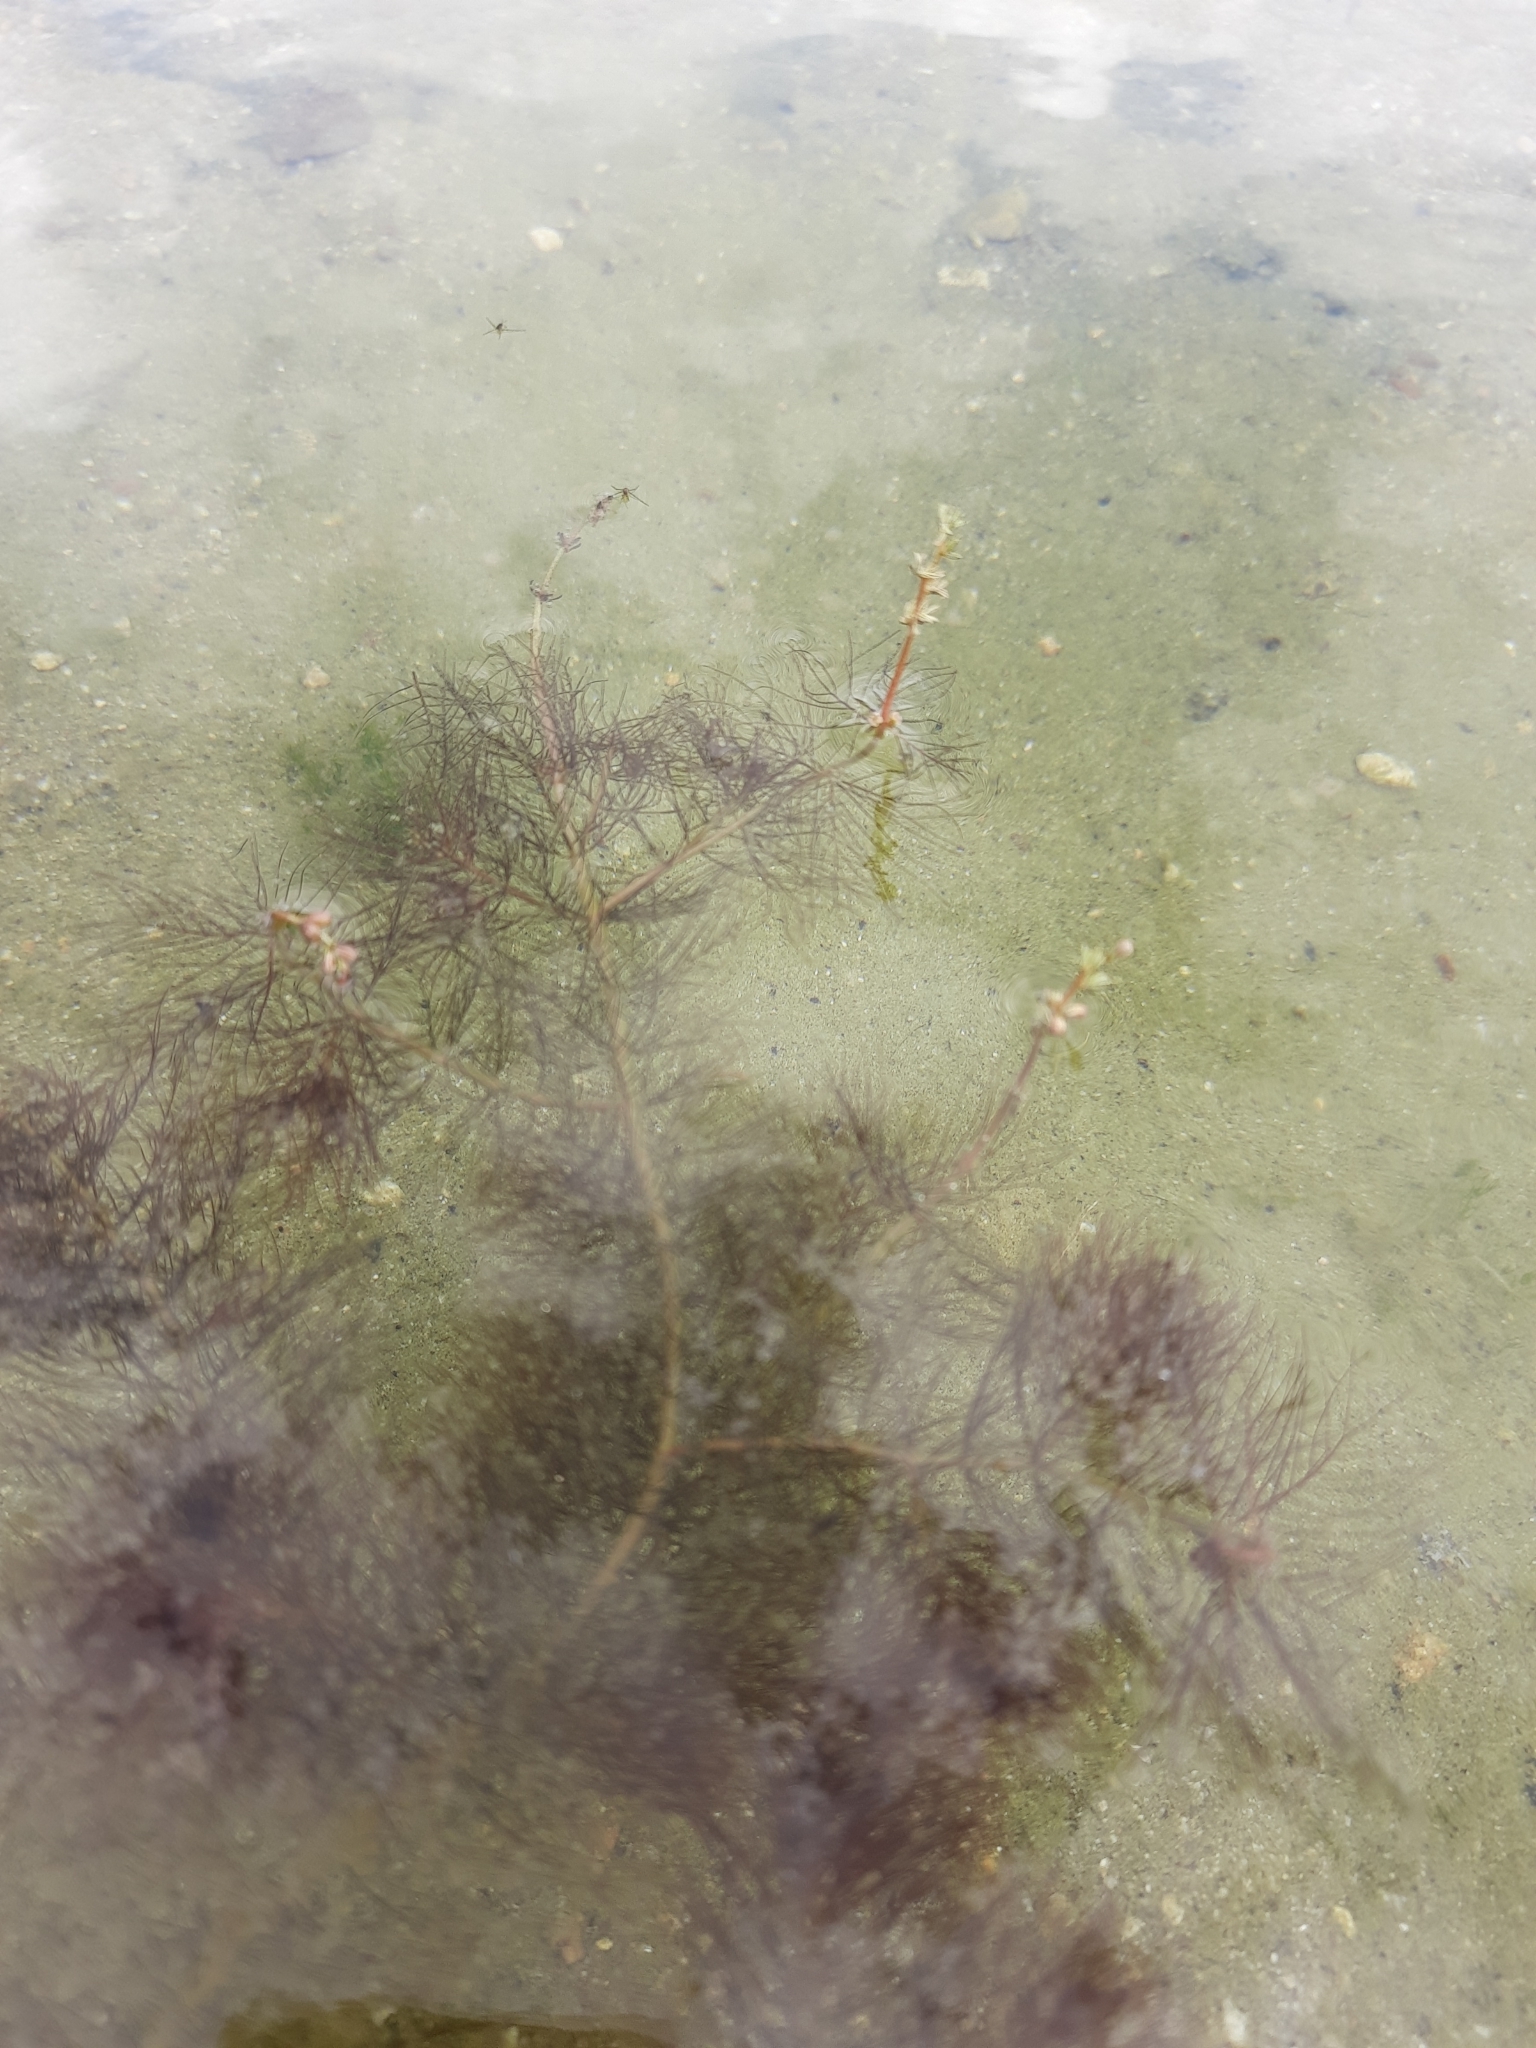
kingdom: Plantae
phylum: Tracheophyta
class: Magnoliopsida
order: Saxifragales
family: Haloragaceae
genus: Myriophyllum
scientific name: Myriophyllum alterniflorum
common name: Alternate water-milfoil
